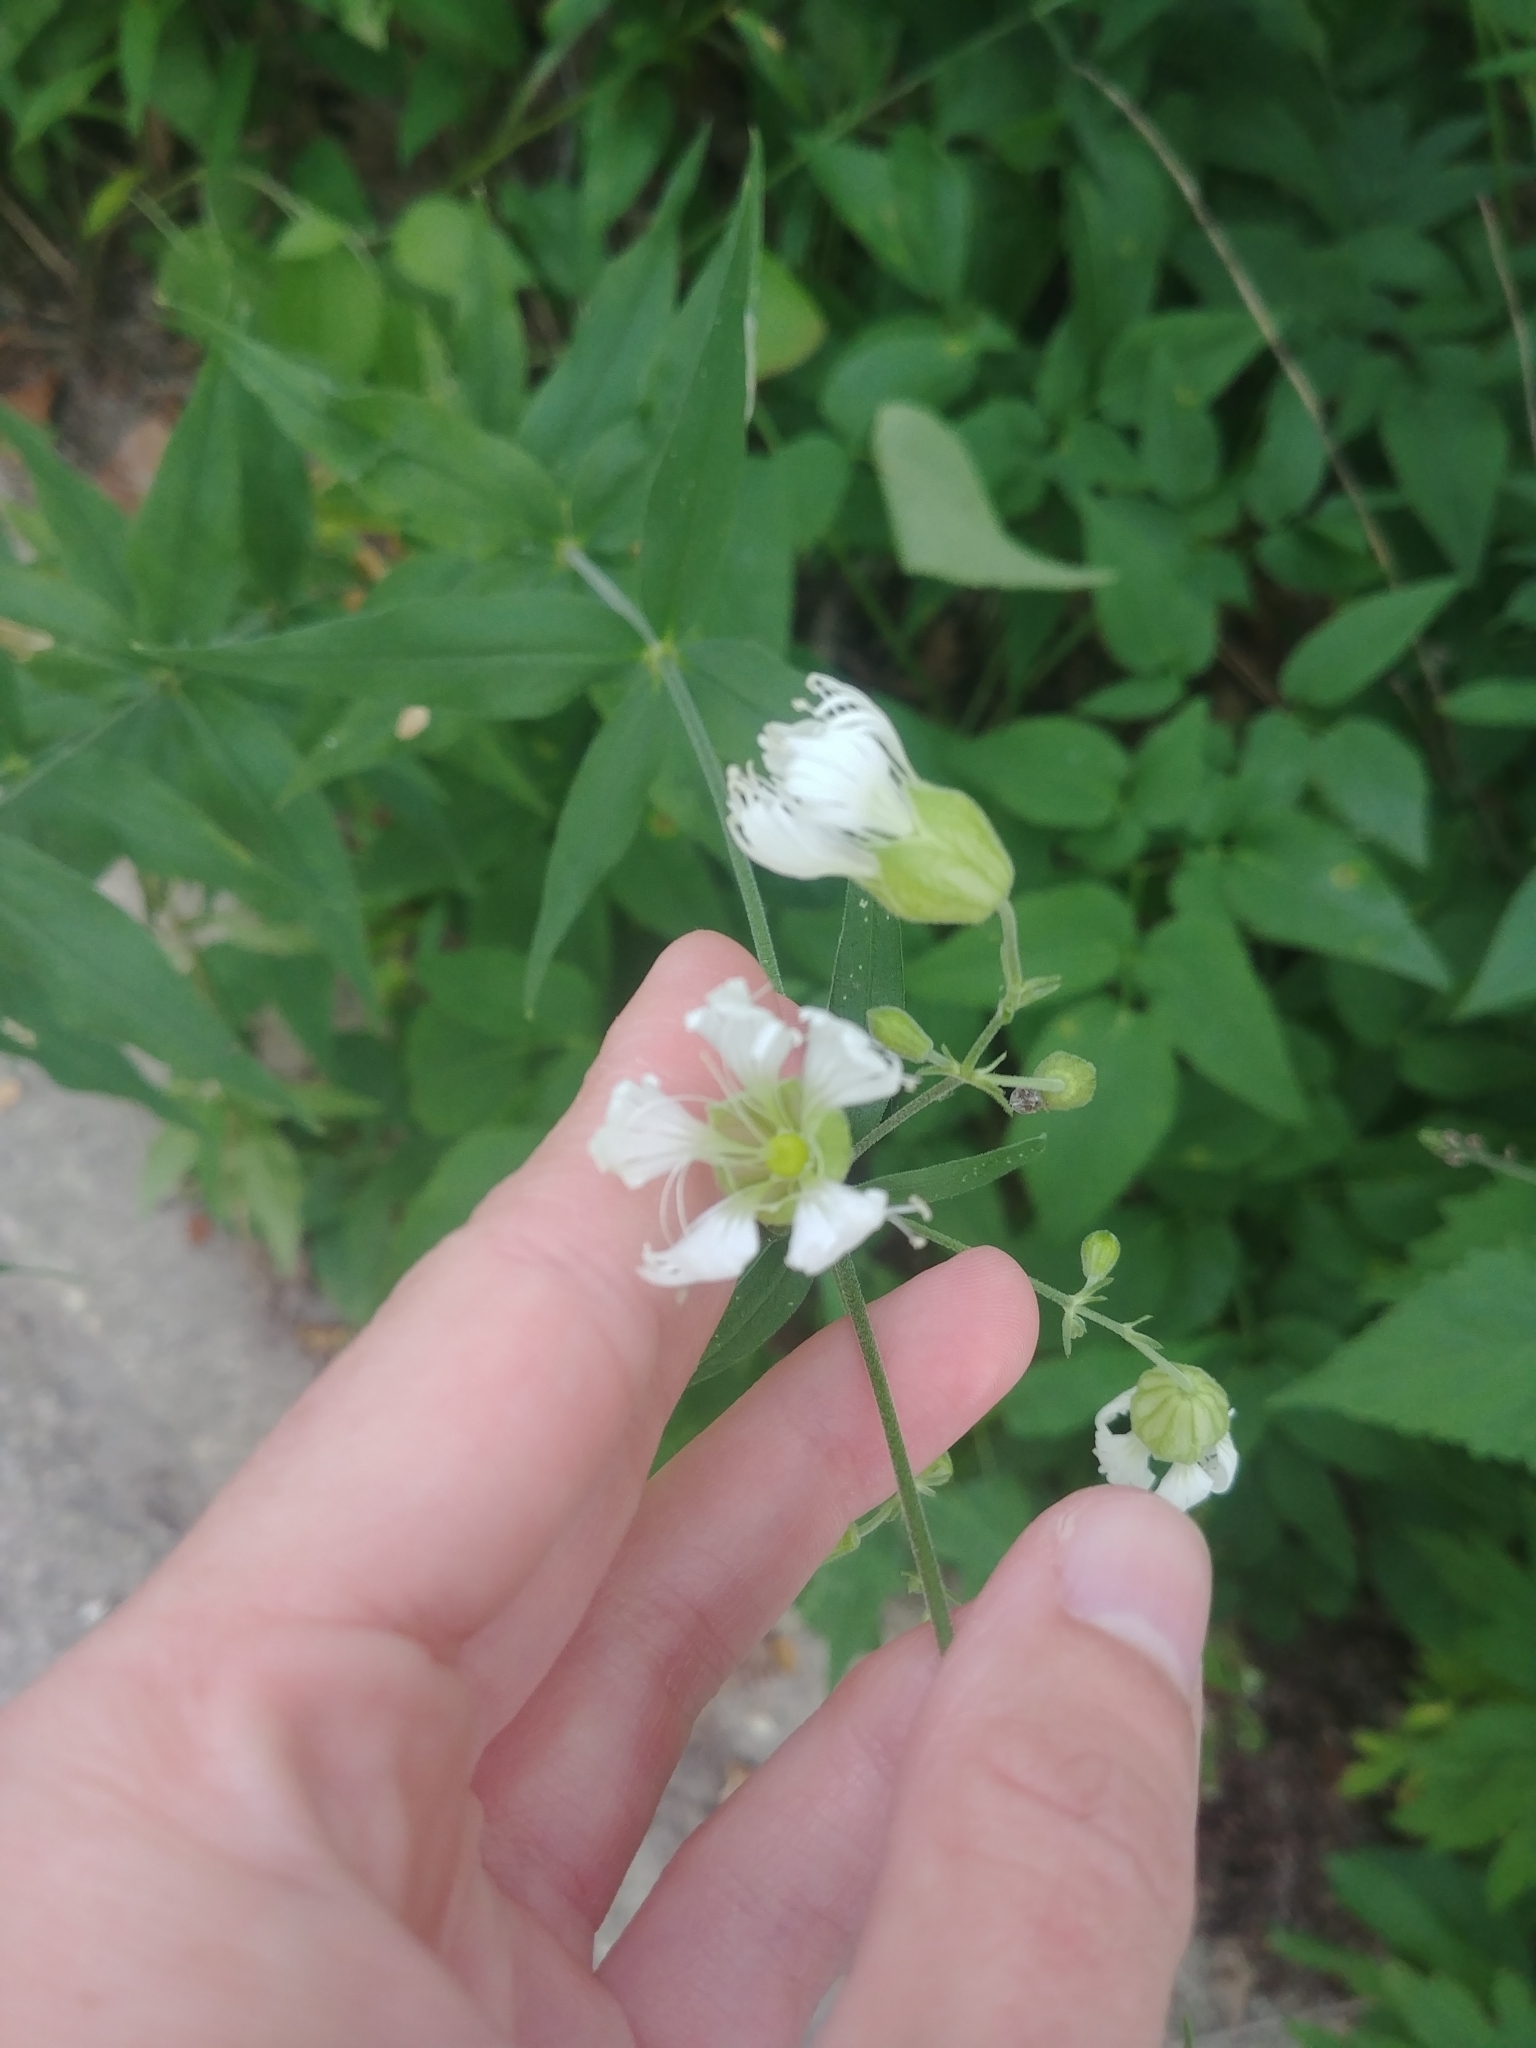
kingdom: Plantae
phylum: Tracheophyta
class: Magnoliopsida
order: Caryophyllales
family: Caryophyllaceae
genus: Silene
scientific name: Silene stellata
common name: Starry campion
